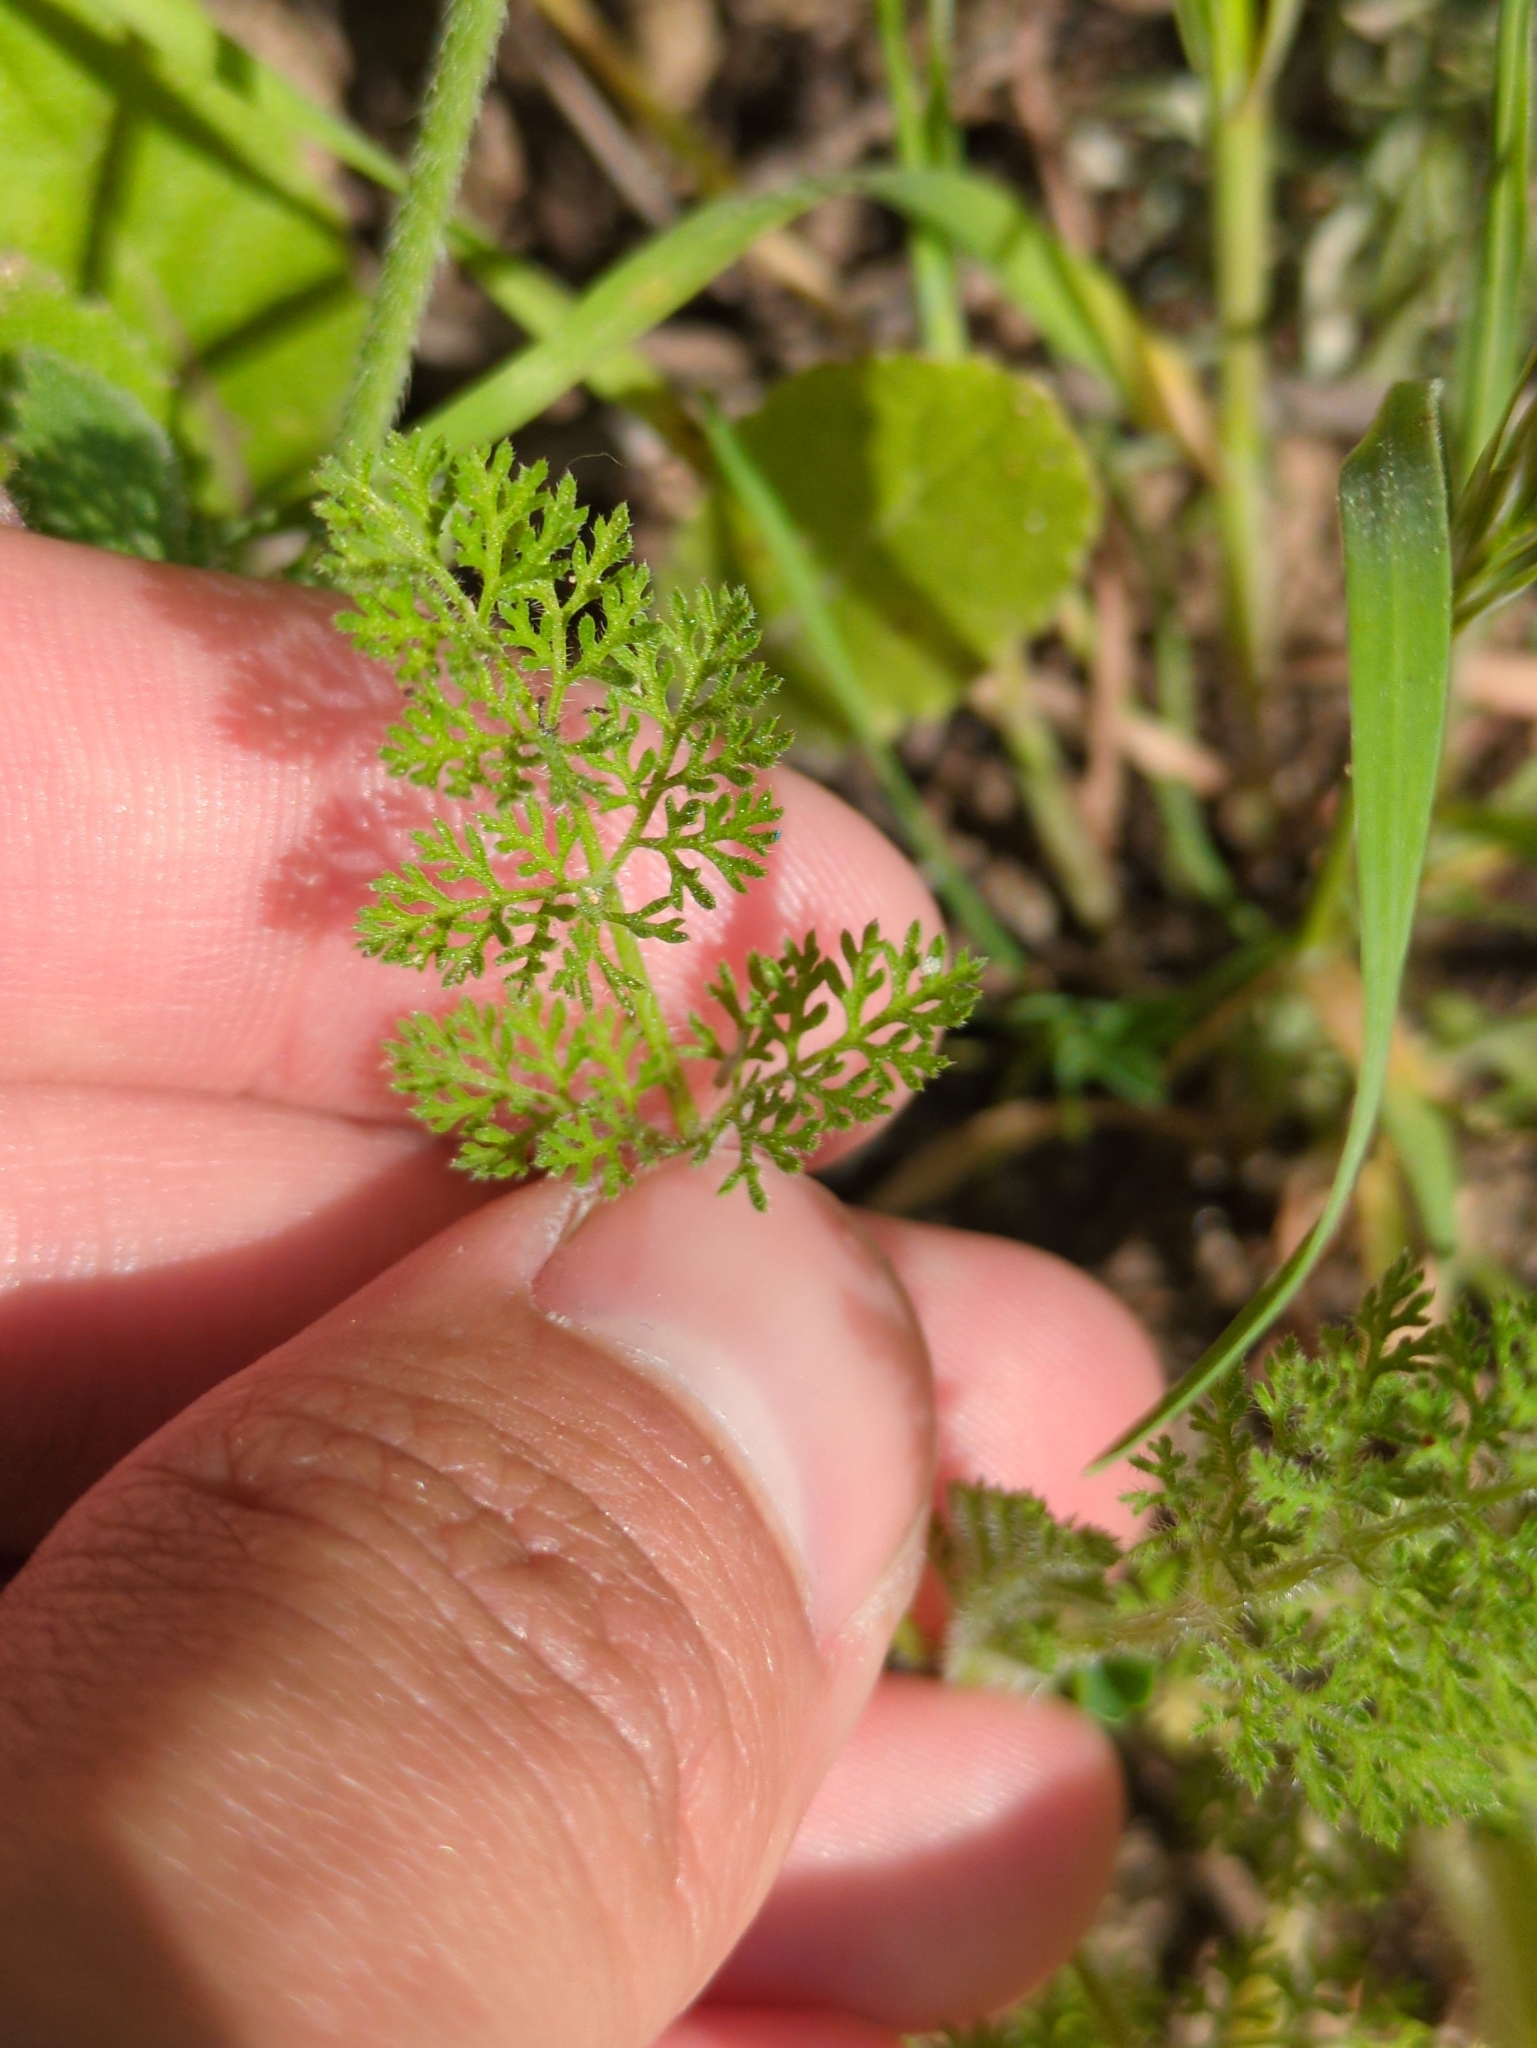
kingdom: Plantae
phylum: Tracheophyta
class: Magnoliopsida
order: Apiales
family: Apiaceae
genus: Daucus
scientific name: Daucus pusillus
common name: Southwest wild carrot
